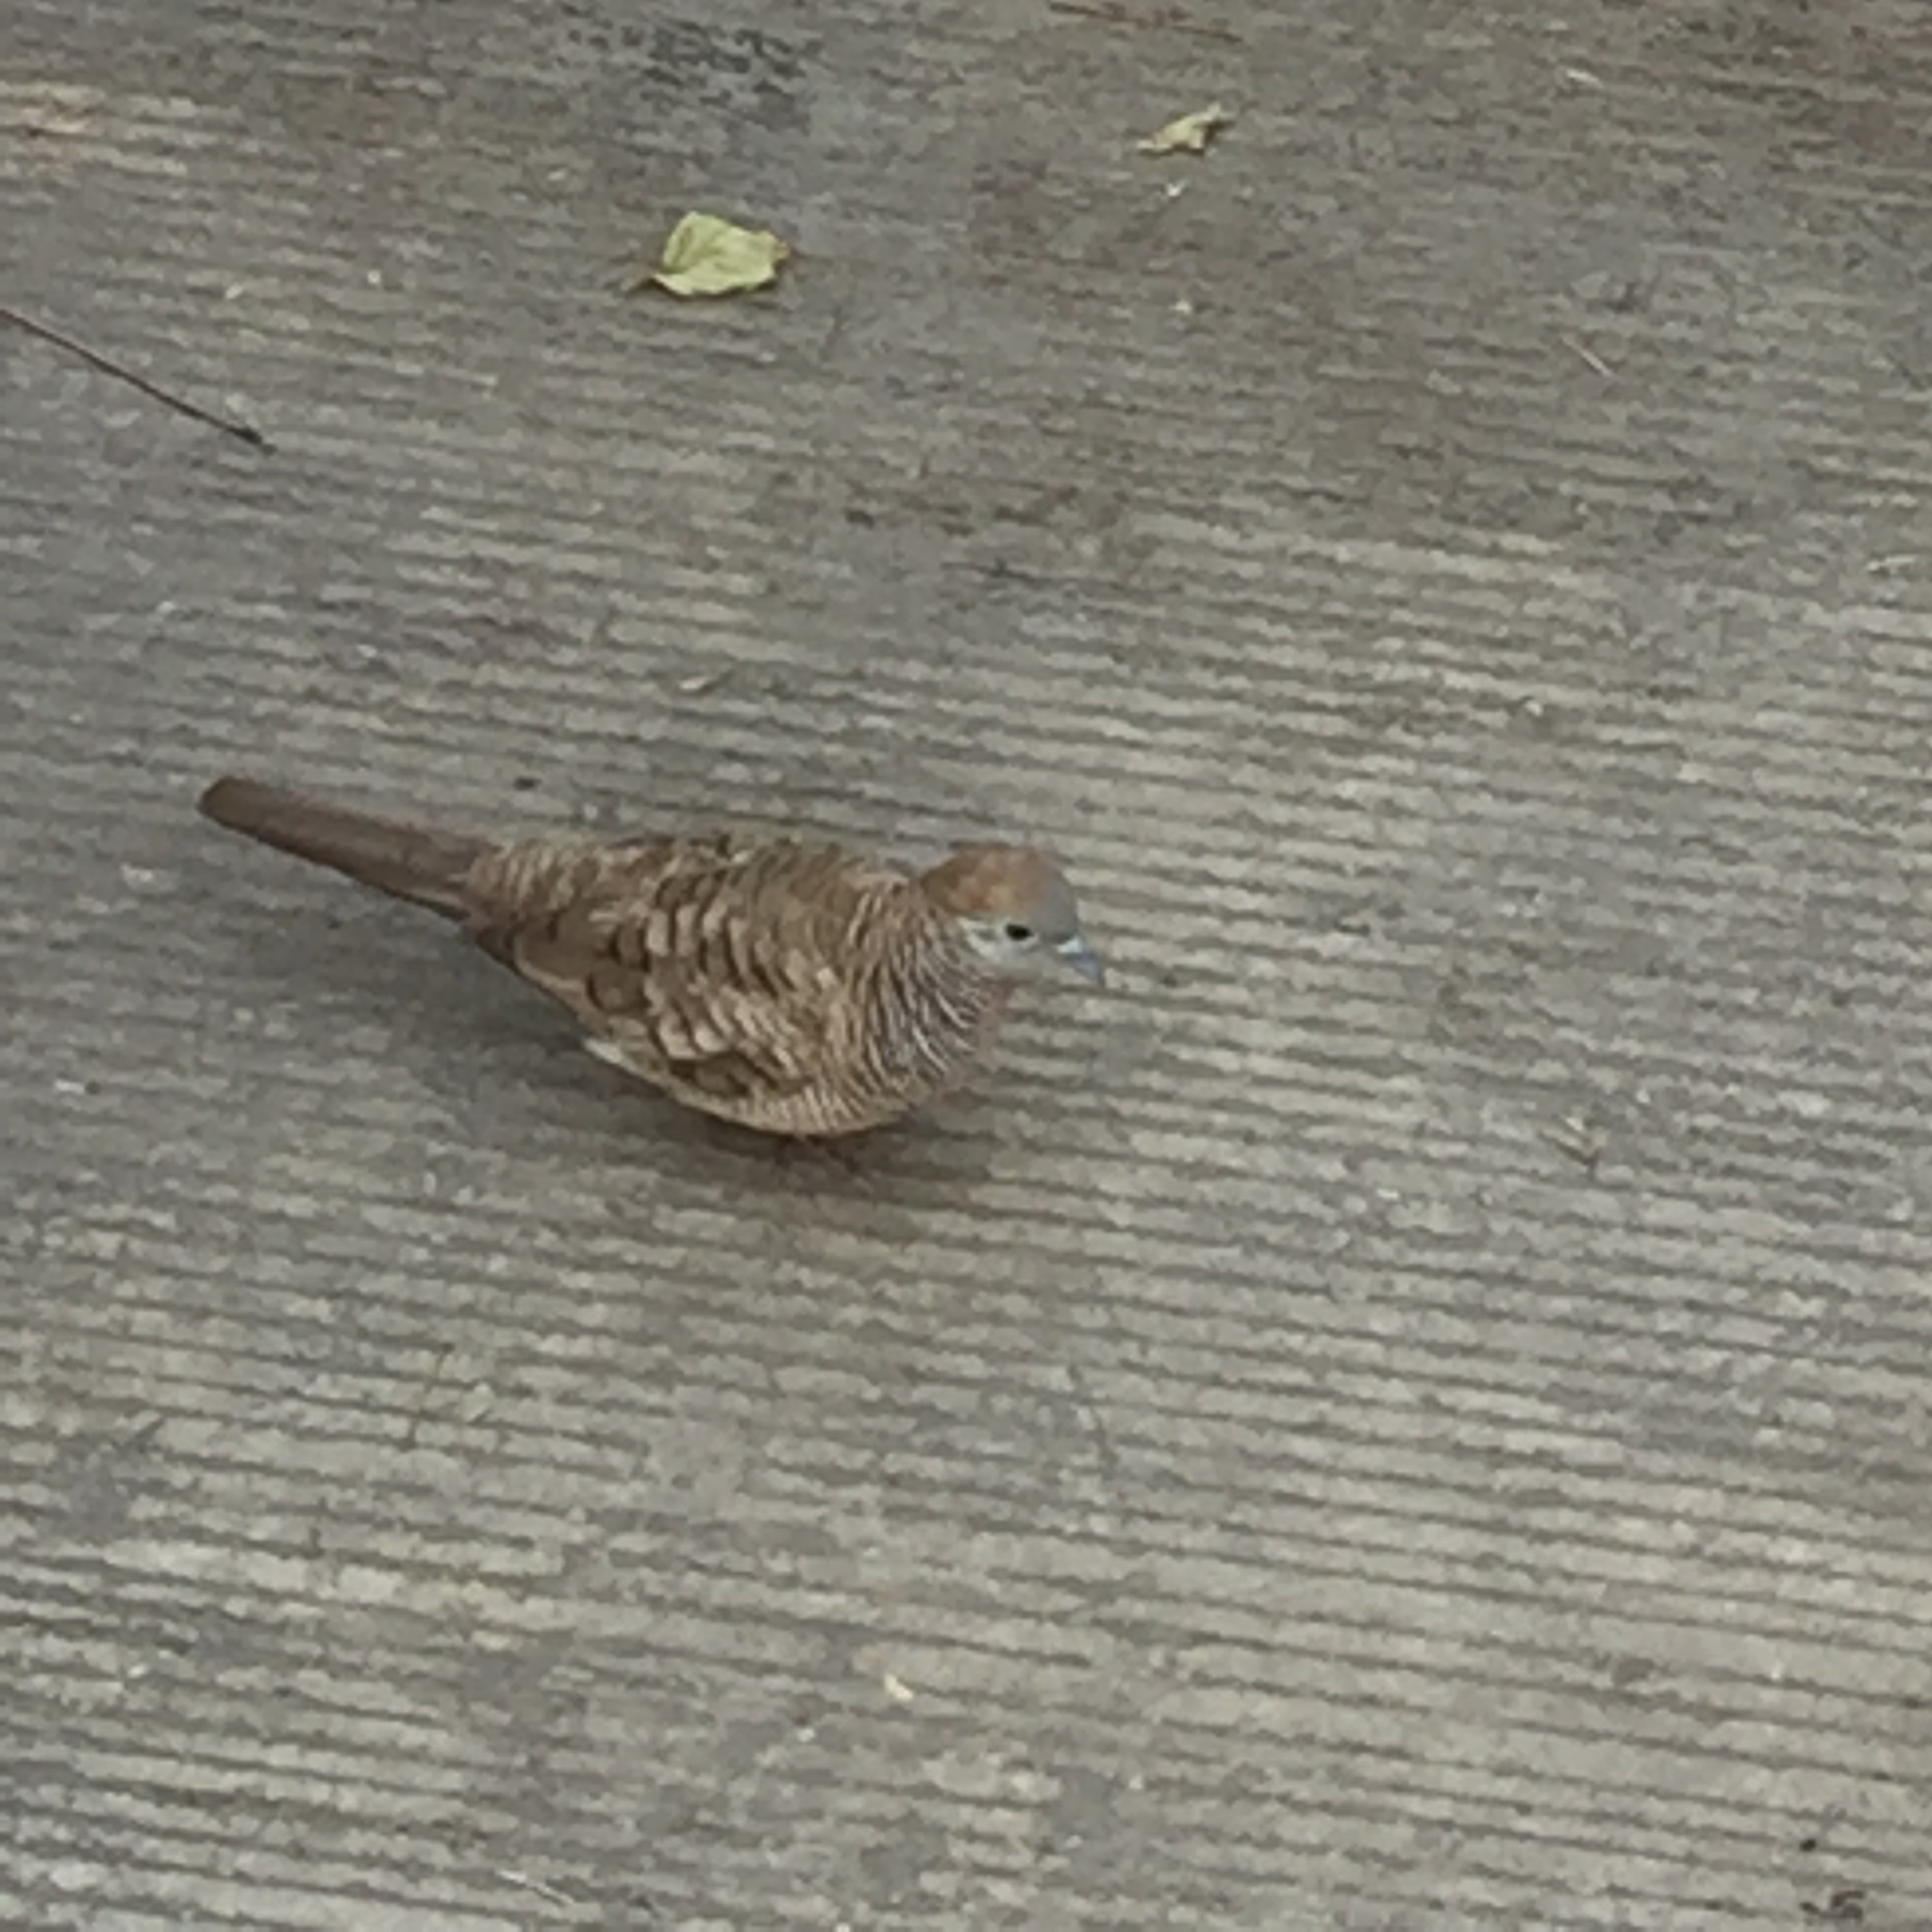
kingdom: Animalia
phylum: Chordata
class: Aves
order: Columbiformes
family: Columbidae
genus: Geopelia
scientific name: Geopelia striata
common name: Zebra dove
